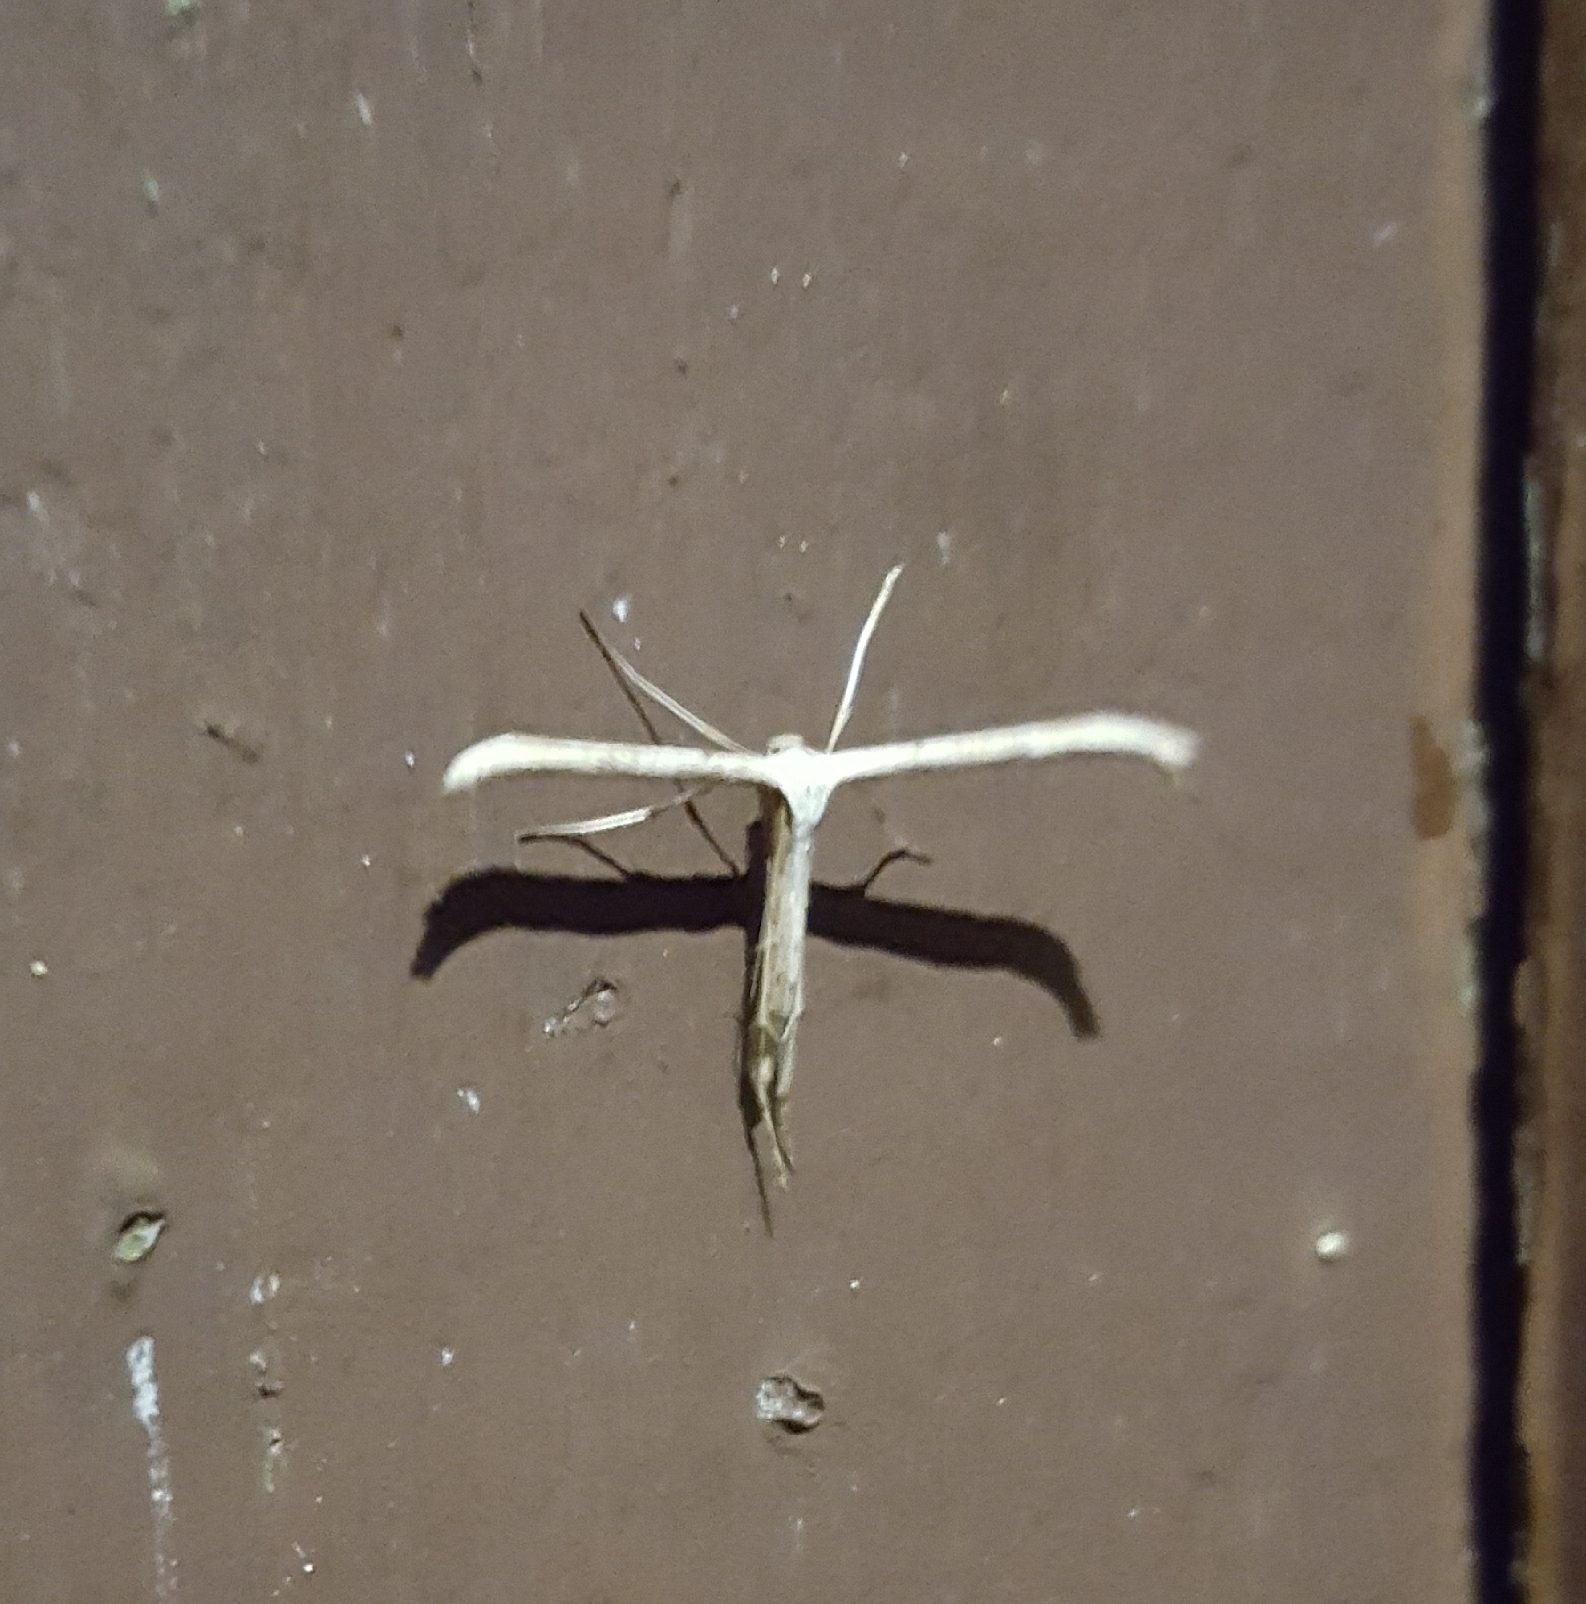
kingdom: Animalia
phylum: Arthropoda
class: Insecta
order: Lepidoptera
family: Pterophoridae
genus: Emmelina
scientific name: Emmelina monodactyla
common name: Common plume
